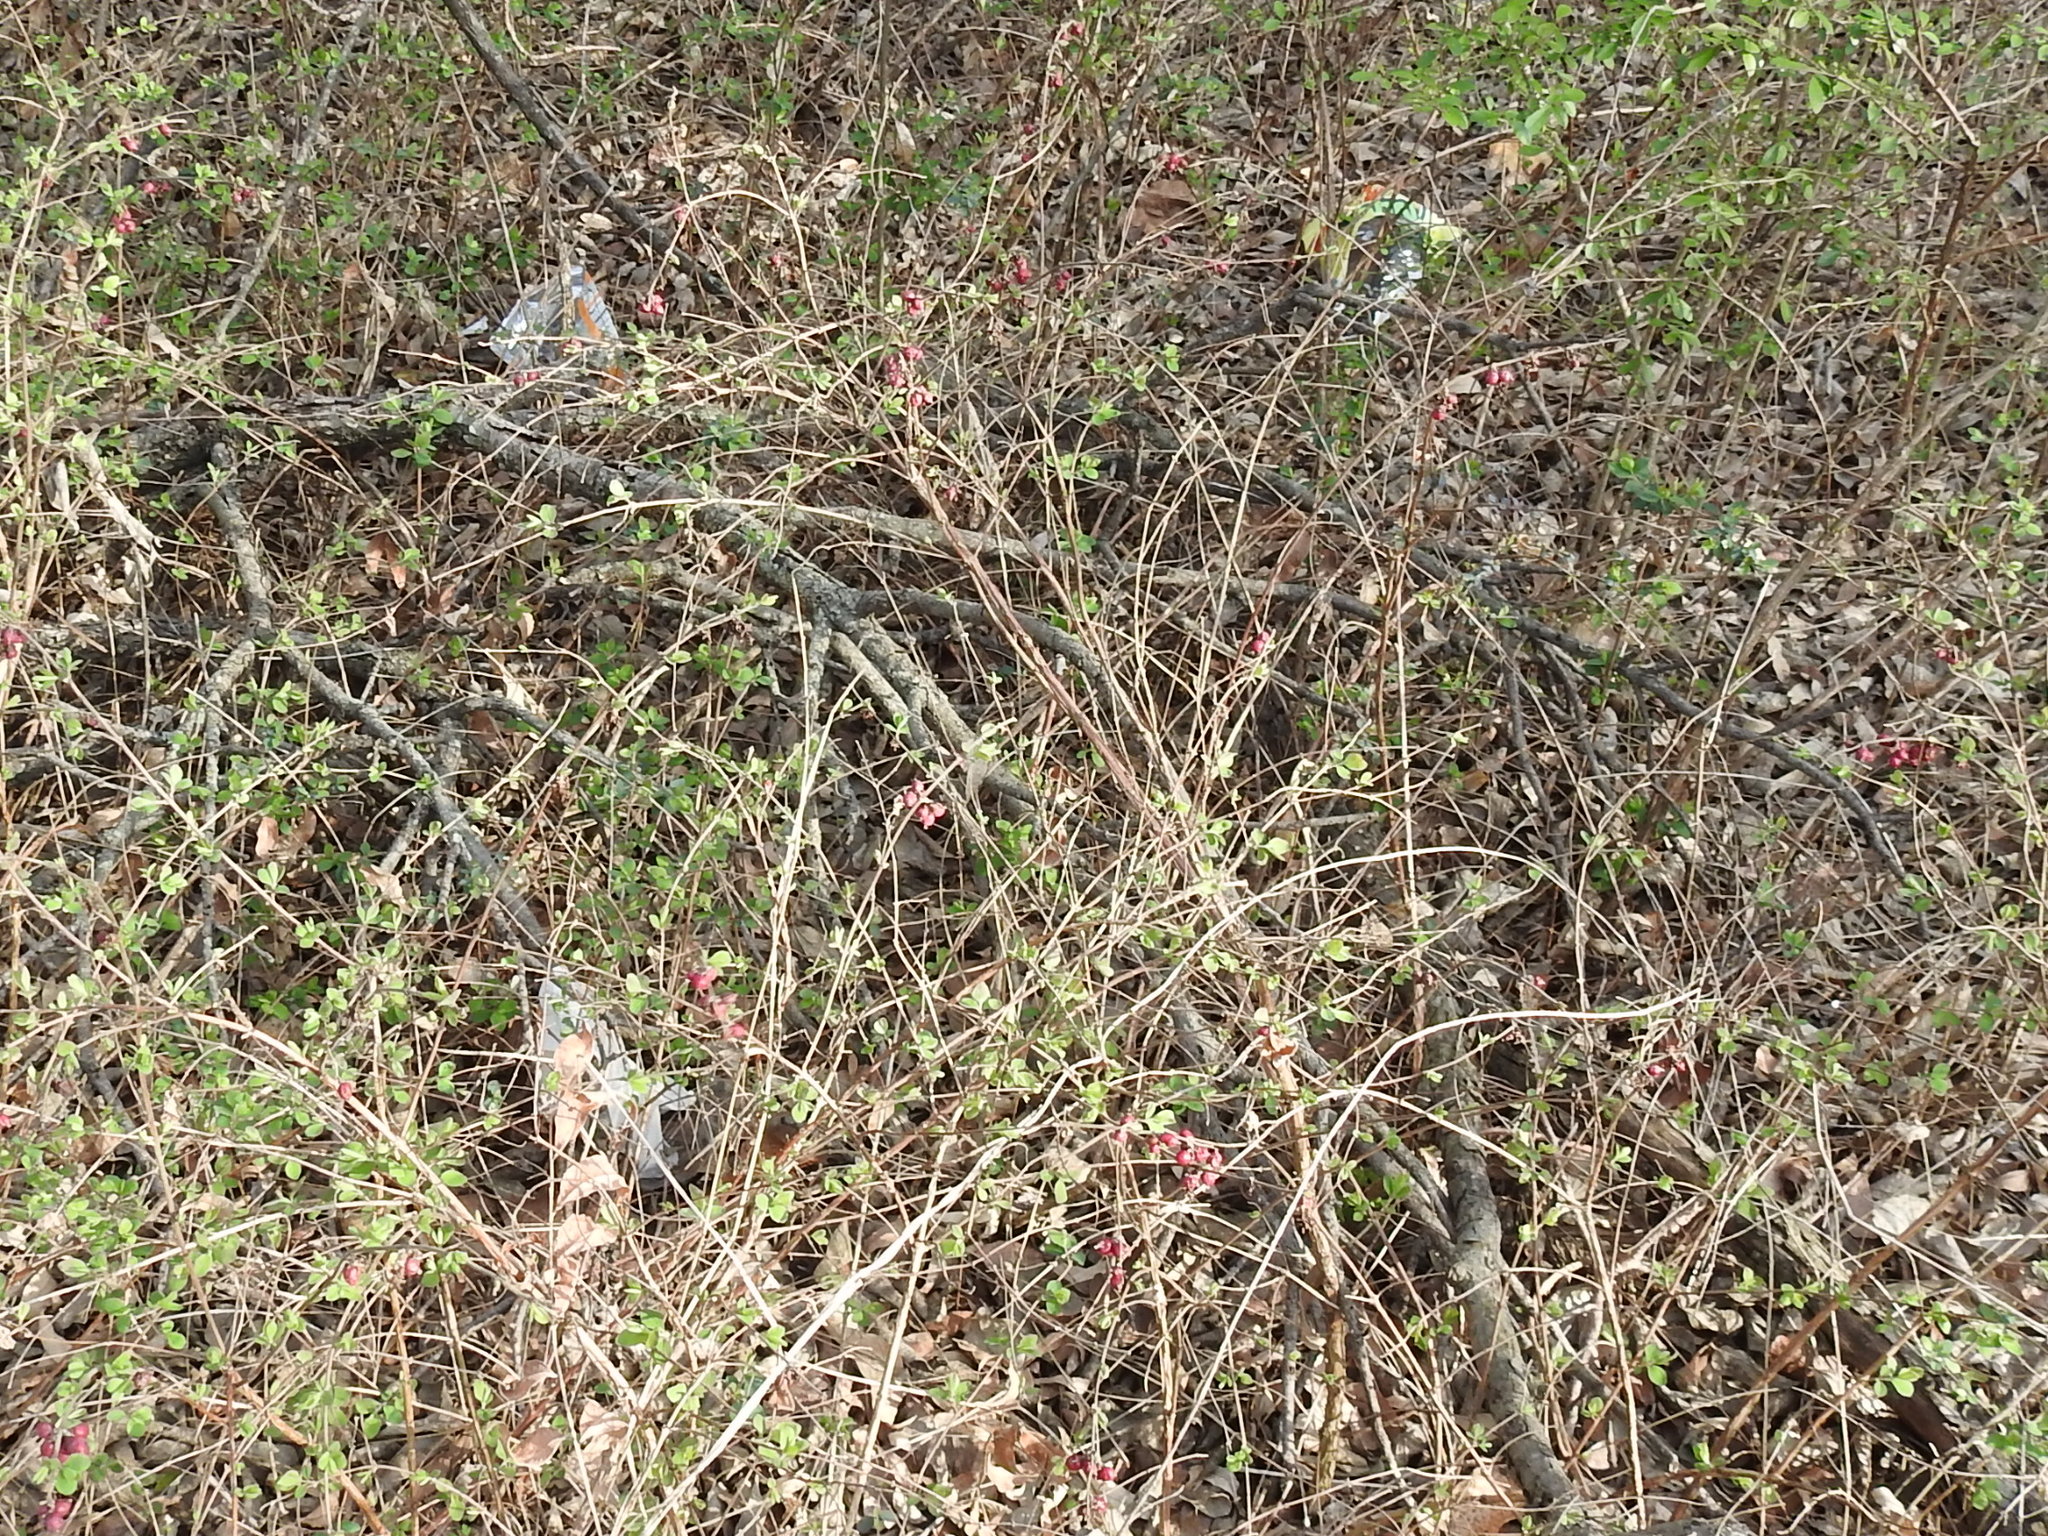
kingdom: Plantae
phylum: Tracheophyta
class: Magnoliopsida
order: Dipsacales
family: Caprifoliaceae
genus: Symphoricarpos
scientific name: Symphoricarpos orbiculatus
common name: Coralberry
